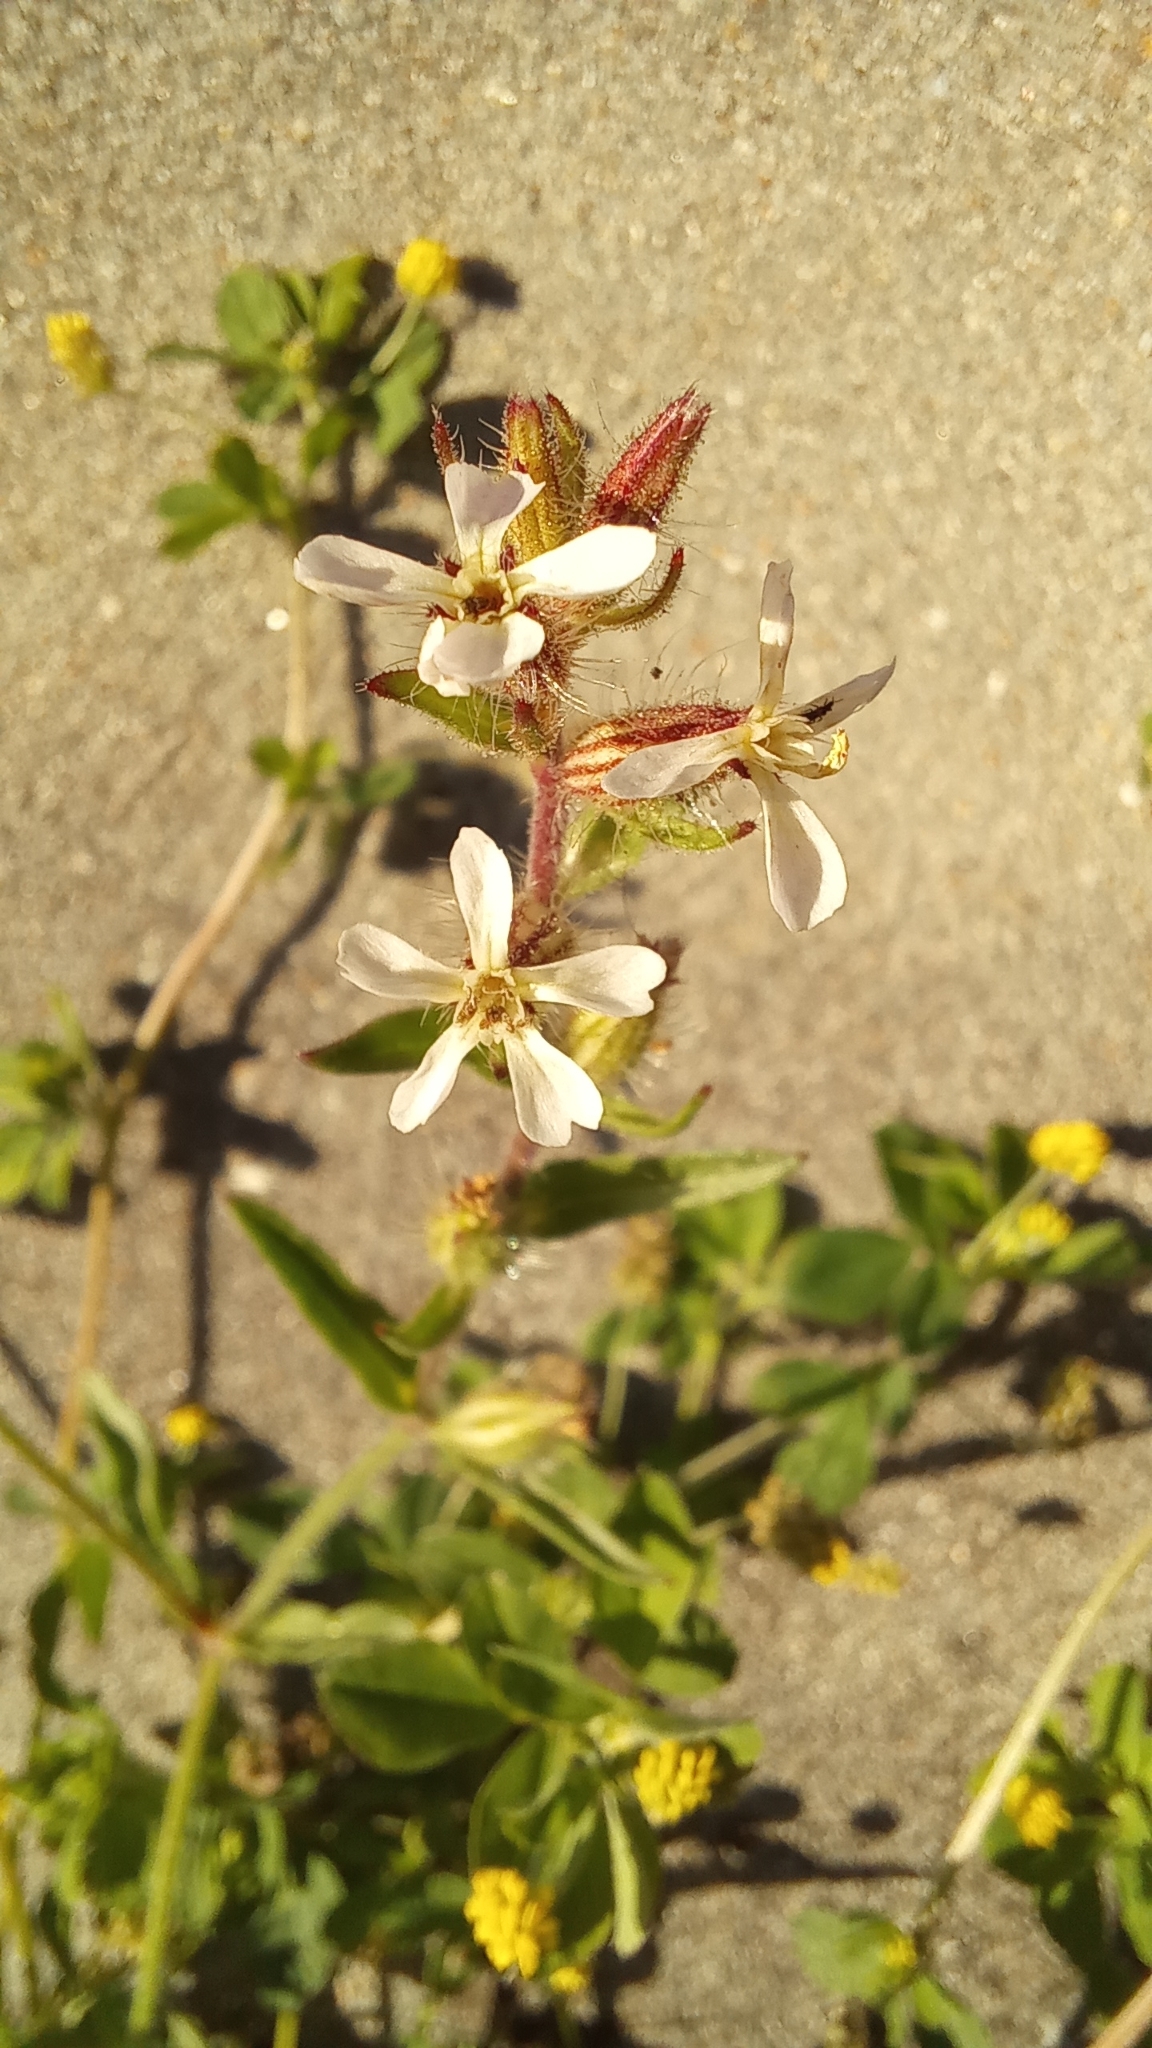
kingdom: Plantae
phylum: Tracheophyta
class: Magnoliopsida
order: Caryophyllales
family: Caryophyllaceae
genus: Silene
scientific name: Silene gallica
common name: Small-flowered catchfly
